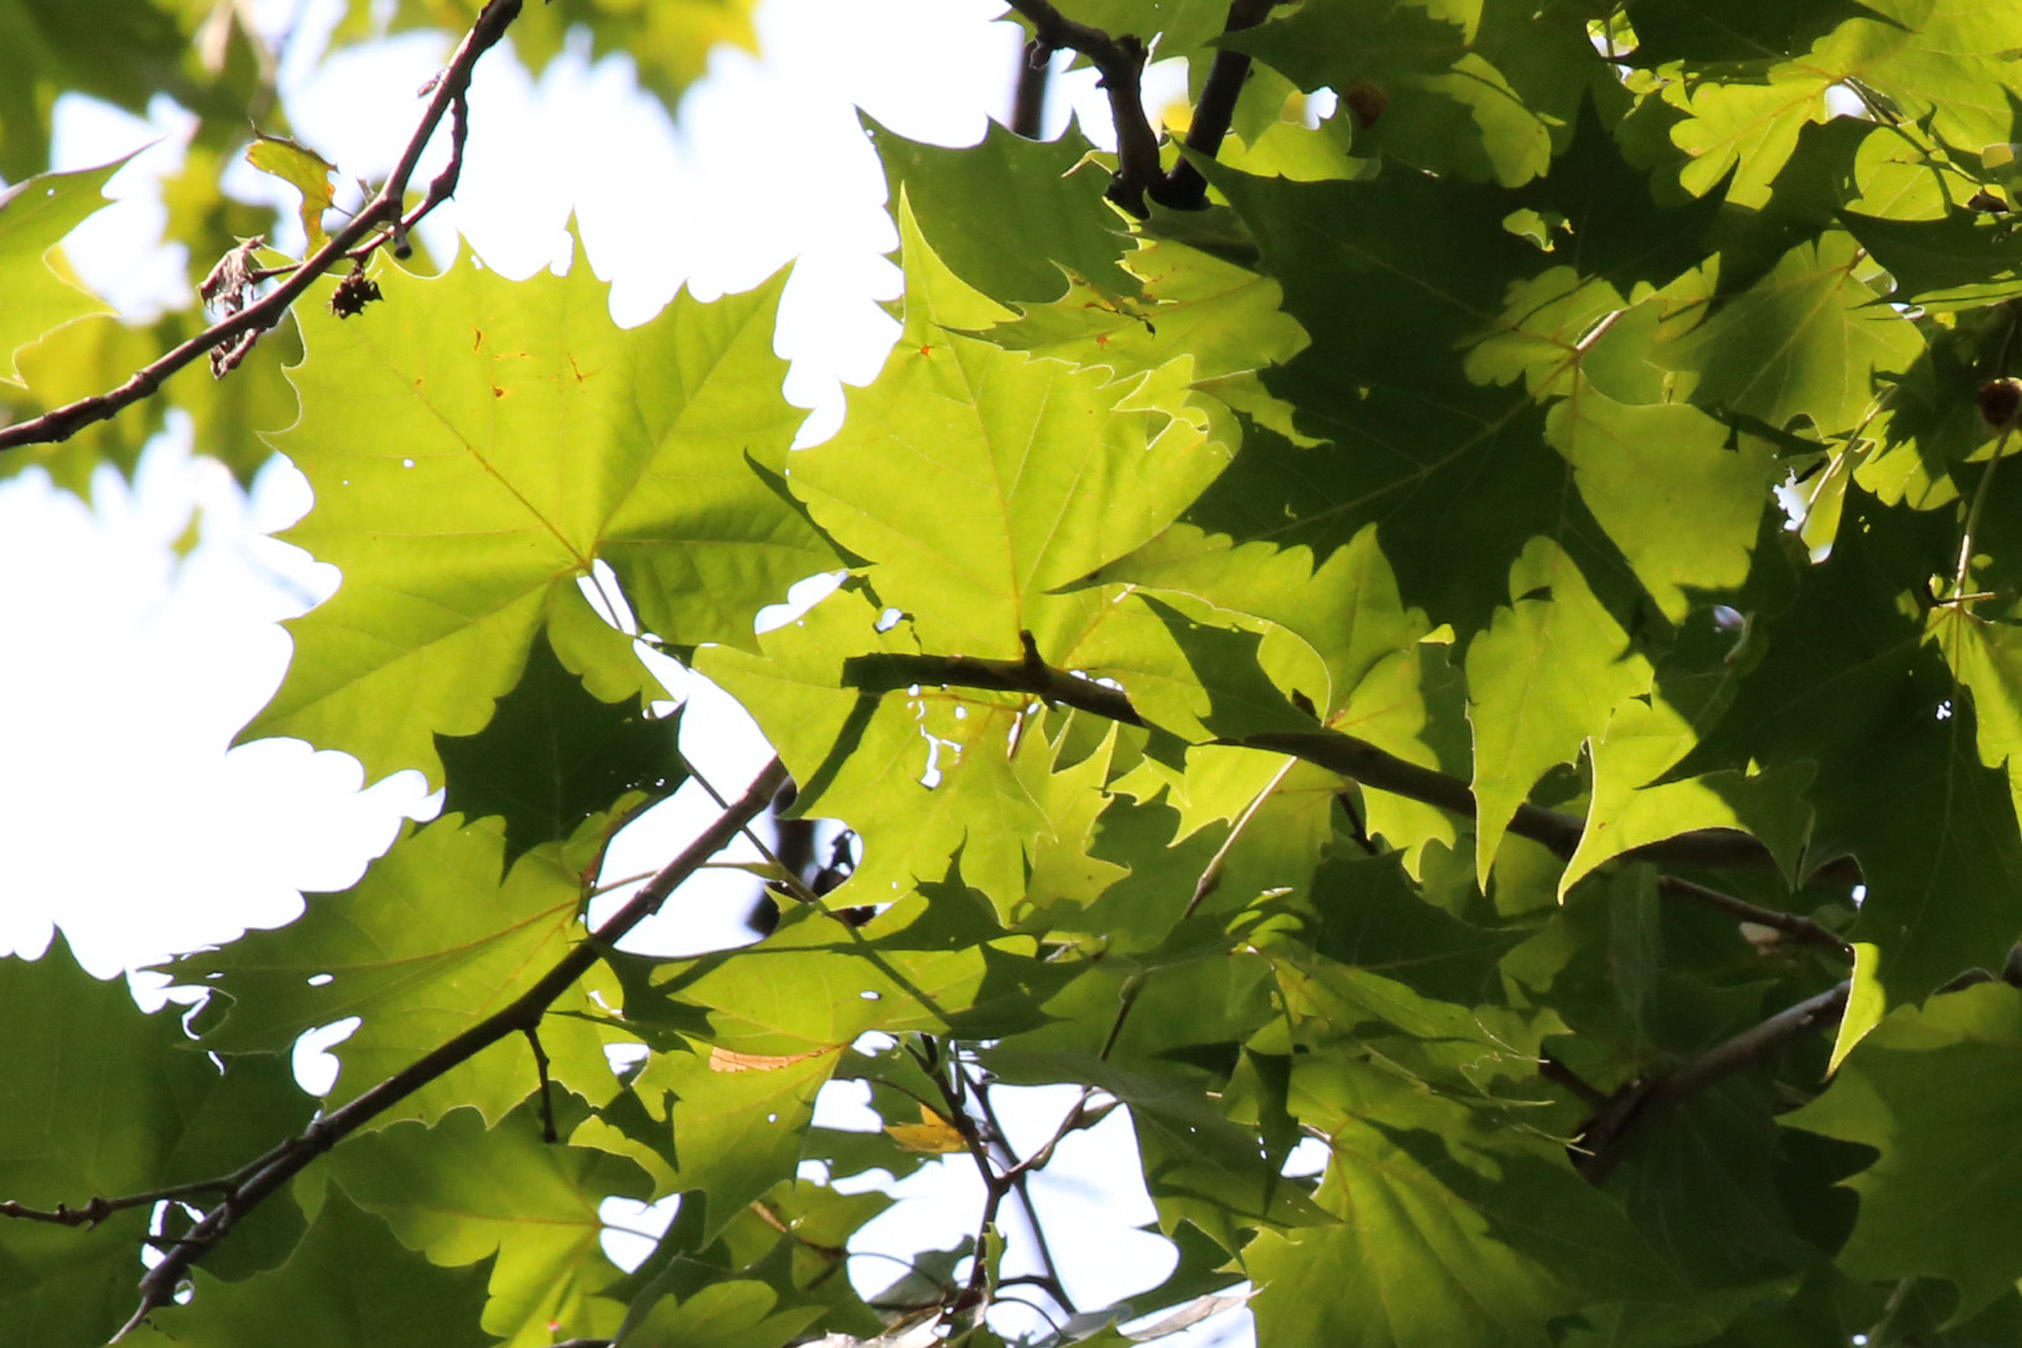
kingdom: Plantae
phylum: Tracheophyta
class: Magnoliopsida
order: Proteales
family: Platanaceae
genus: Platanus
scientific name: Platanus occidentalis
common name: American sycamore
